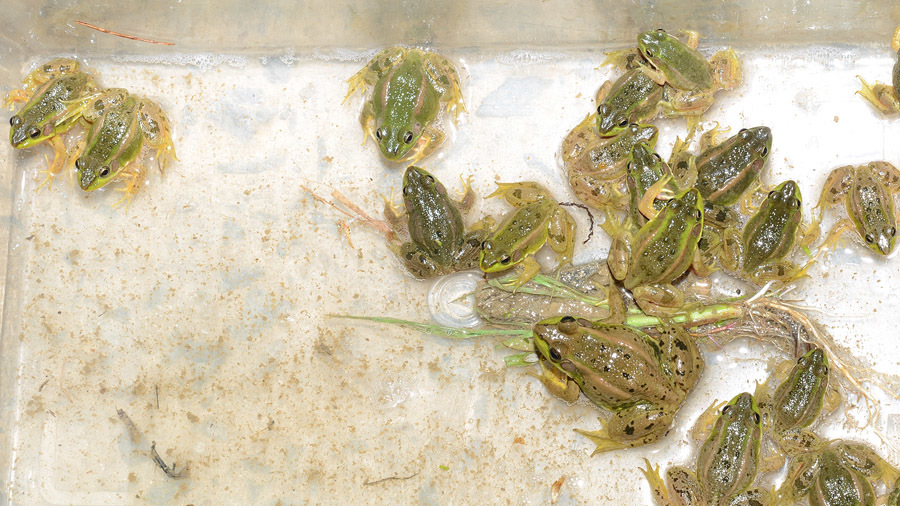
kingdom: Animalia
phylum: Chordata
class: Amphibia
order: Anura
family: Ranidae
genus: Pelophylax
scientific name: Pelophylax chosenicus
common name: Gold-spotted pond frog
